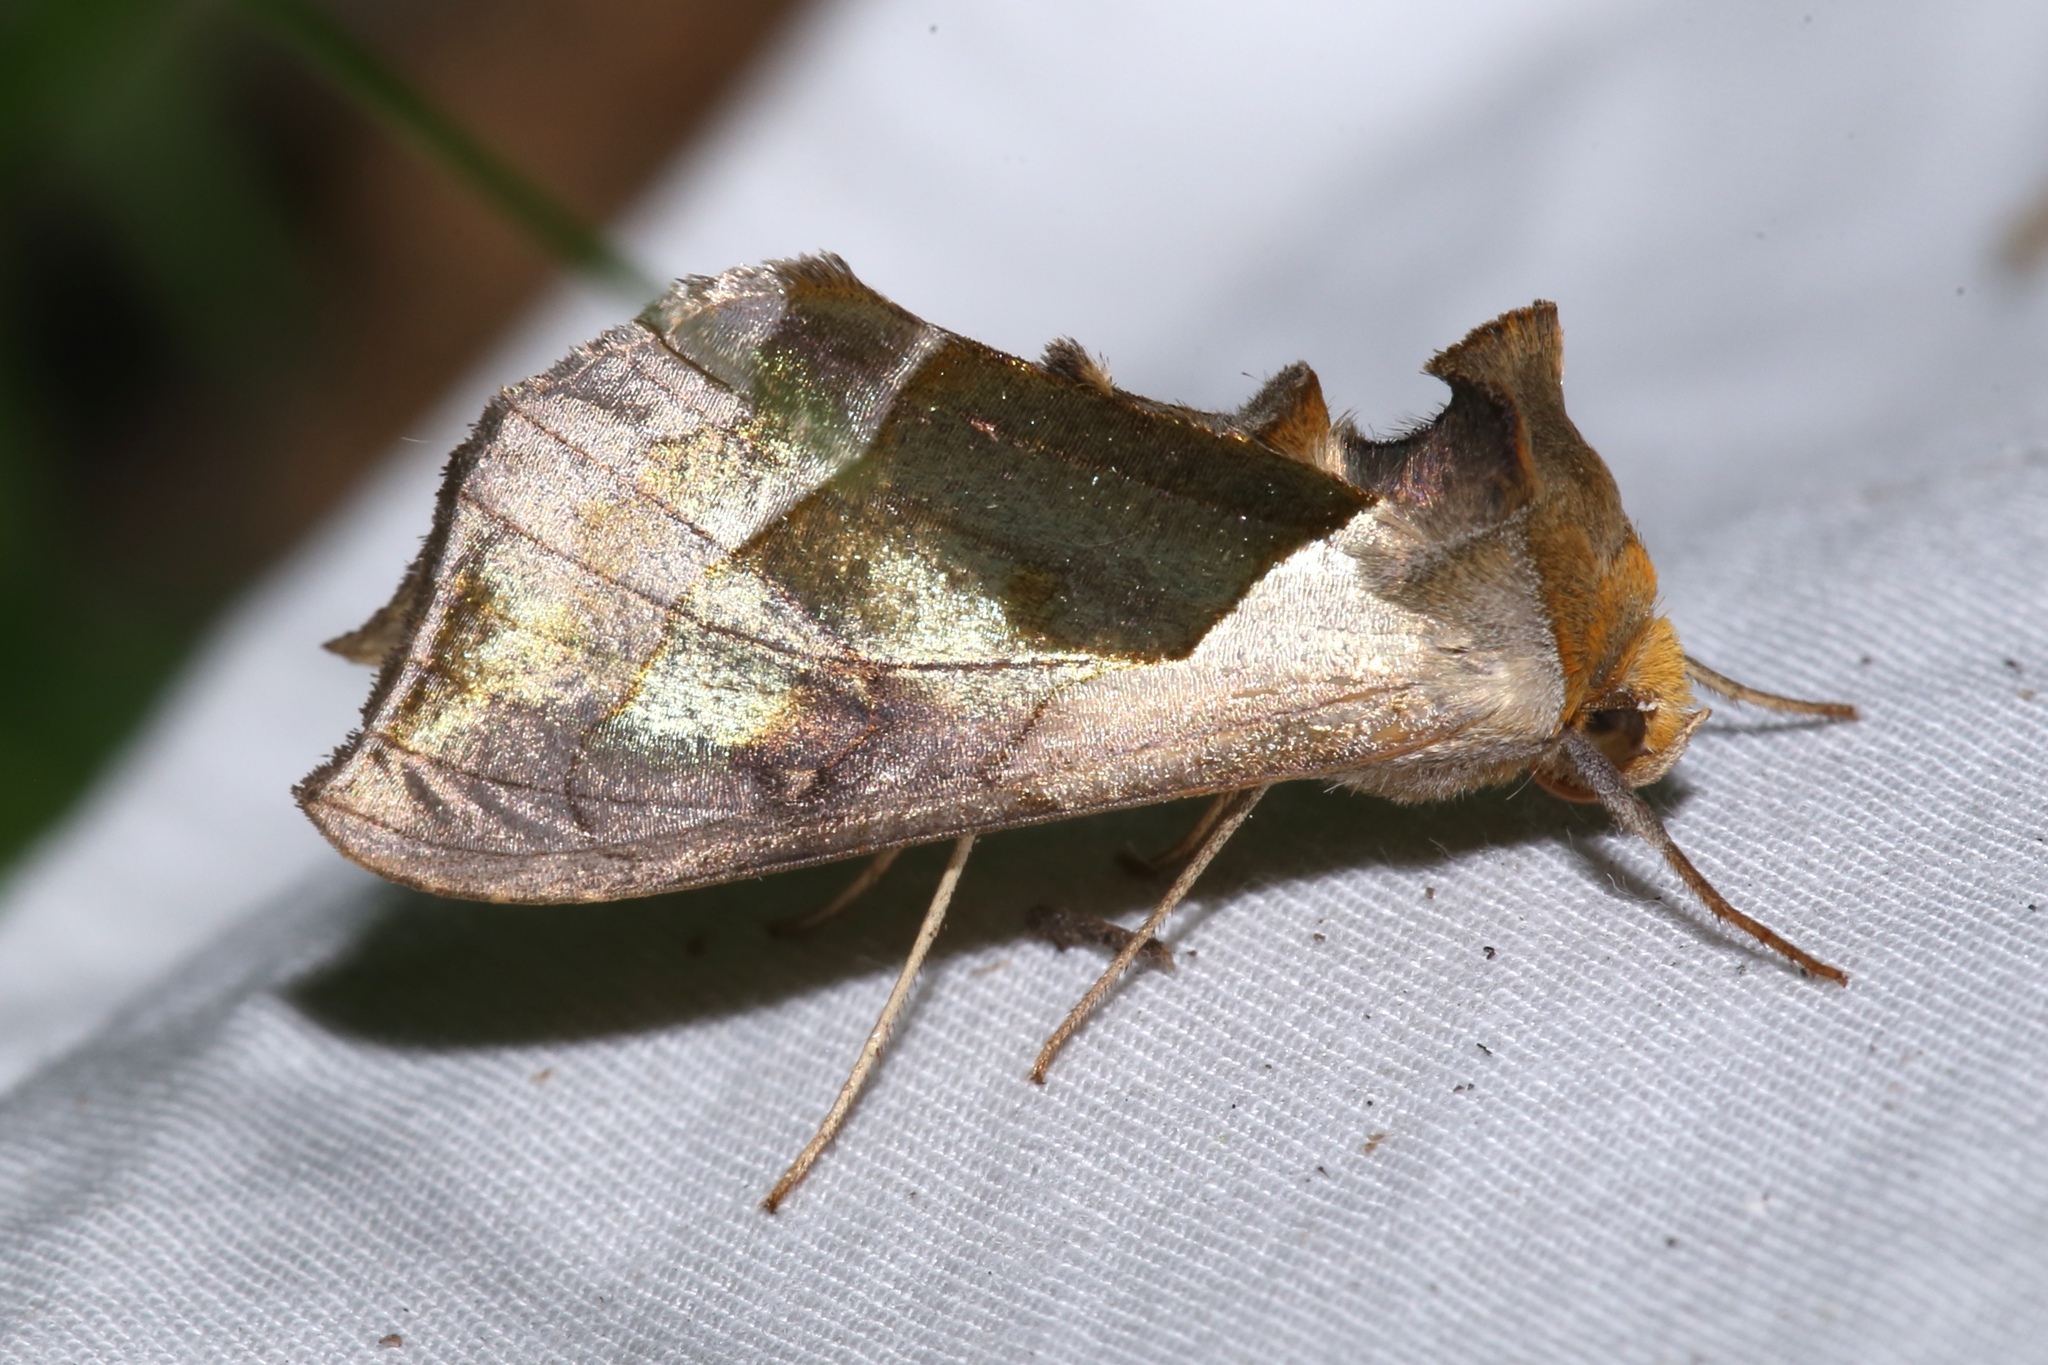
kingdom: Animalia
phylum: Arthropoda
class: Insecta
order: Lepidoptera
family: Noctuidae
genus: Diachrysia
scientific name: Diachrysia balluca
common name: Green-patched looper moth
